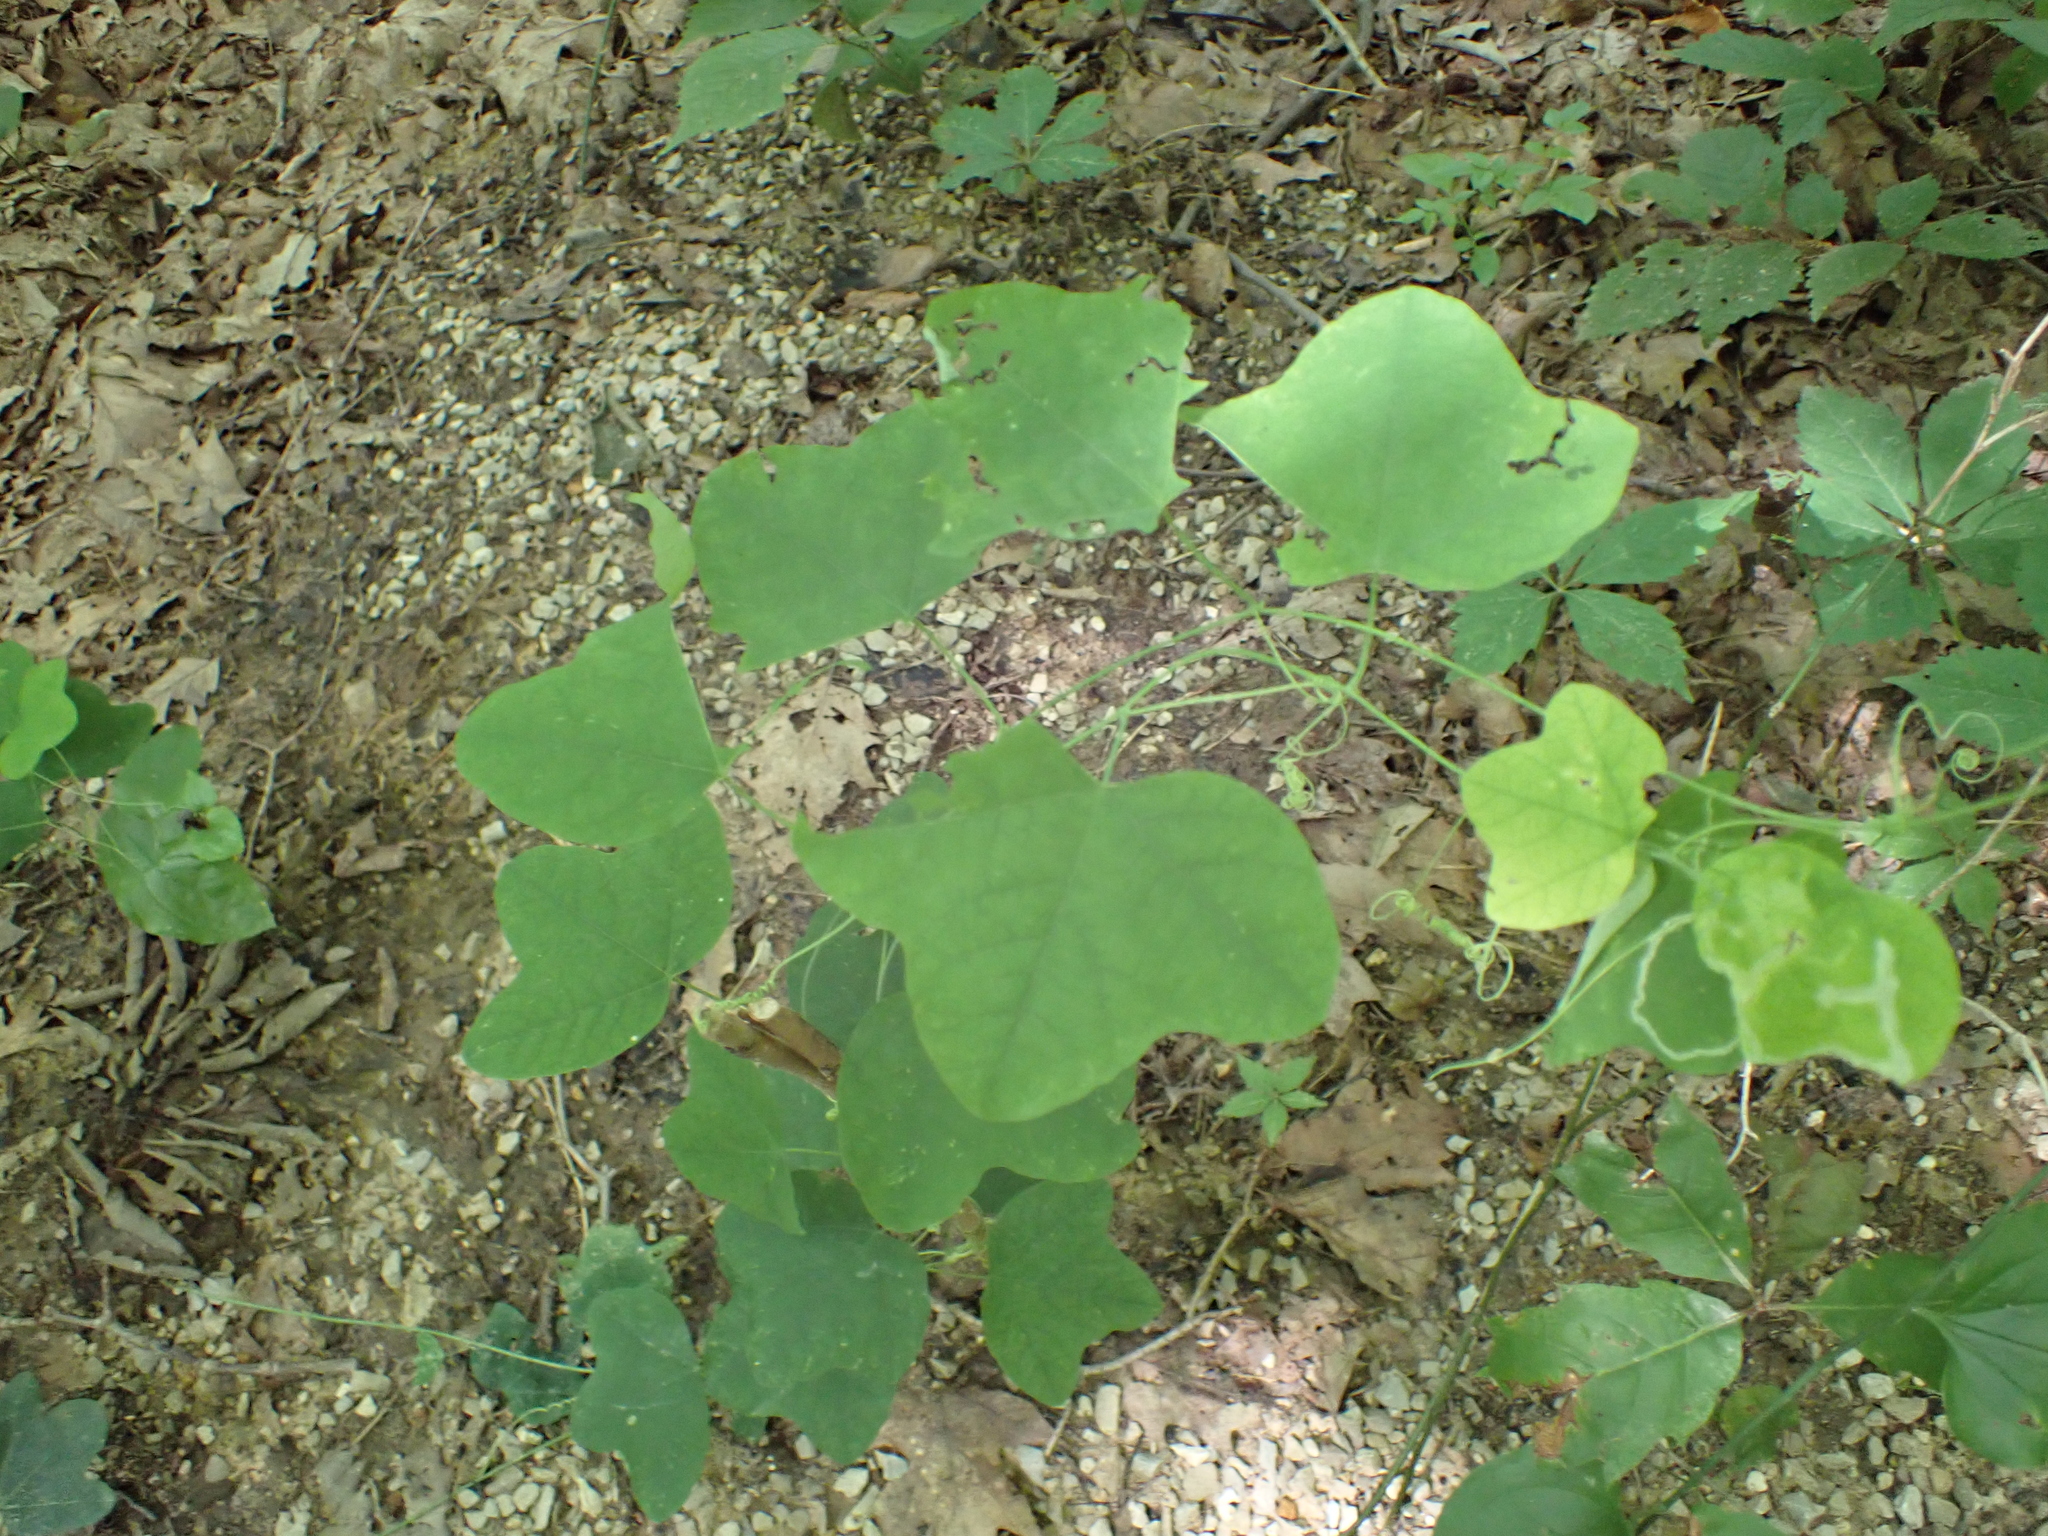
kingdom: Plantae
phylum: Tracheophyta
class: Magnoliopsida
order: Malpighiales
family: Passifloraceae
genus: Passiflora
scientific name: Passiflora lutea
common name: Yellow passionflower
